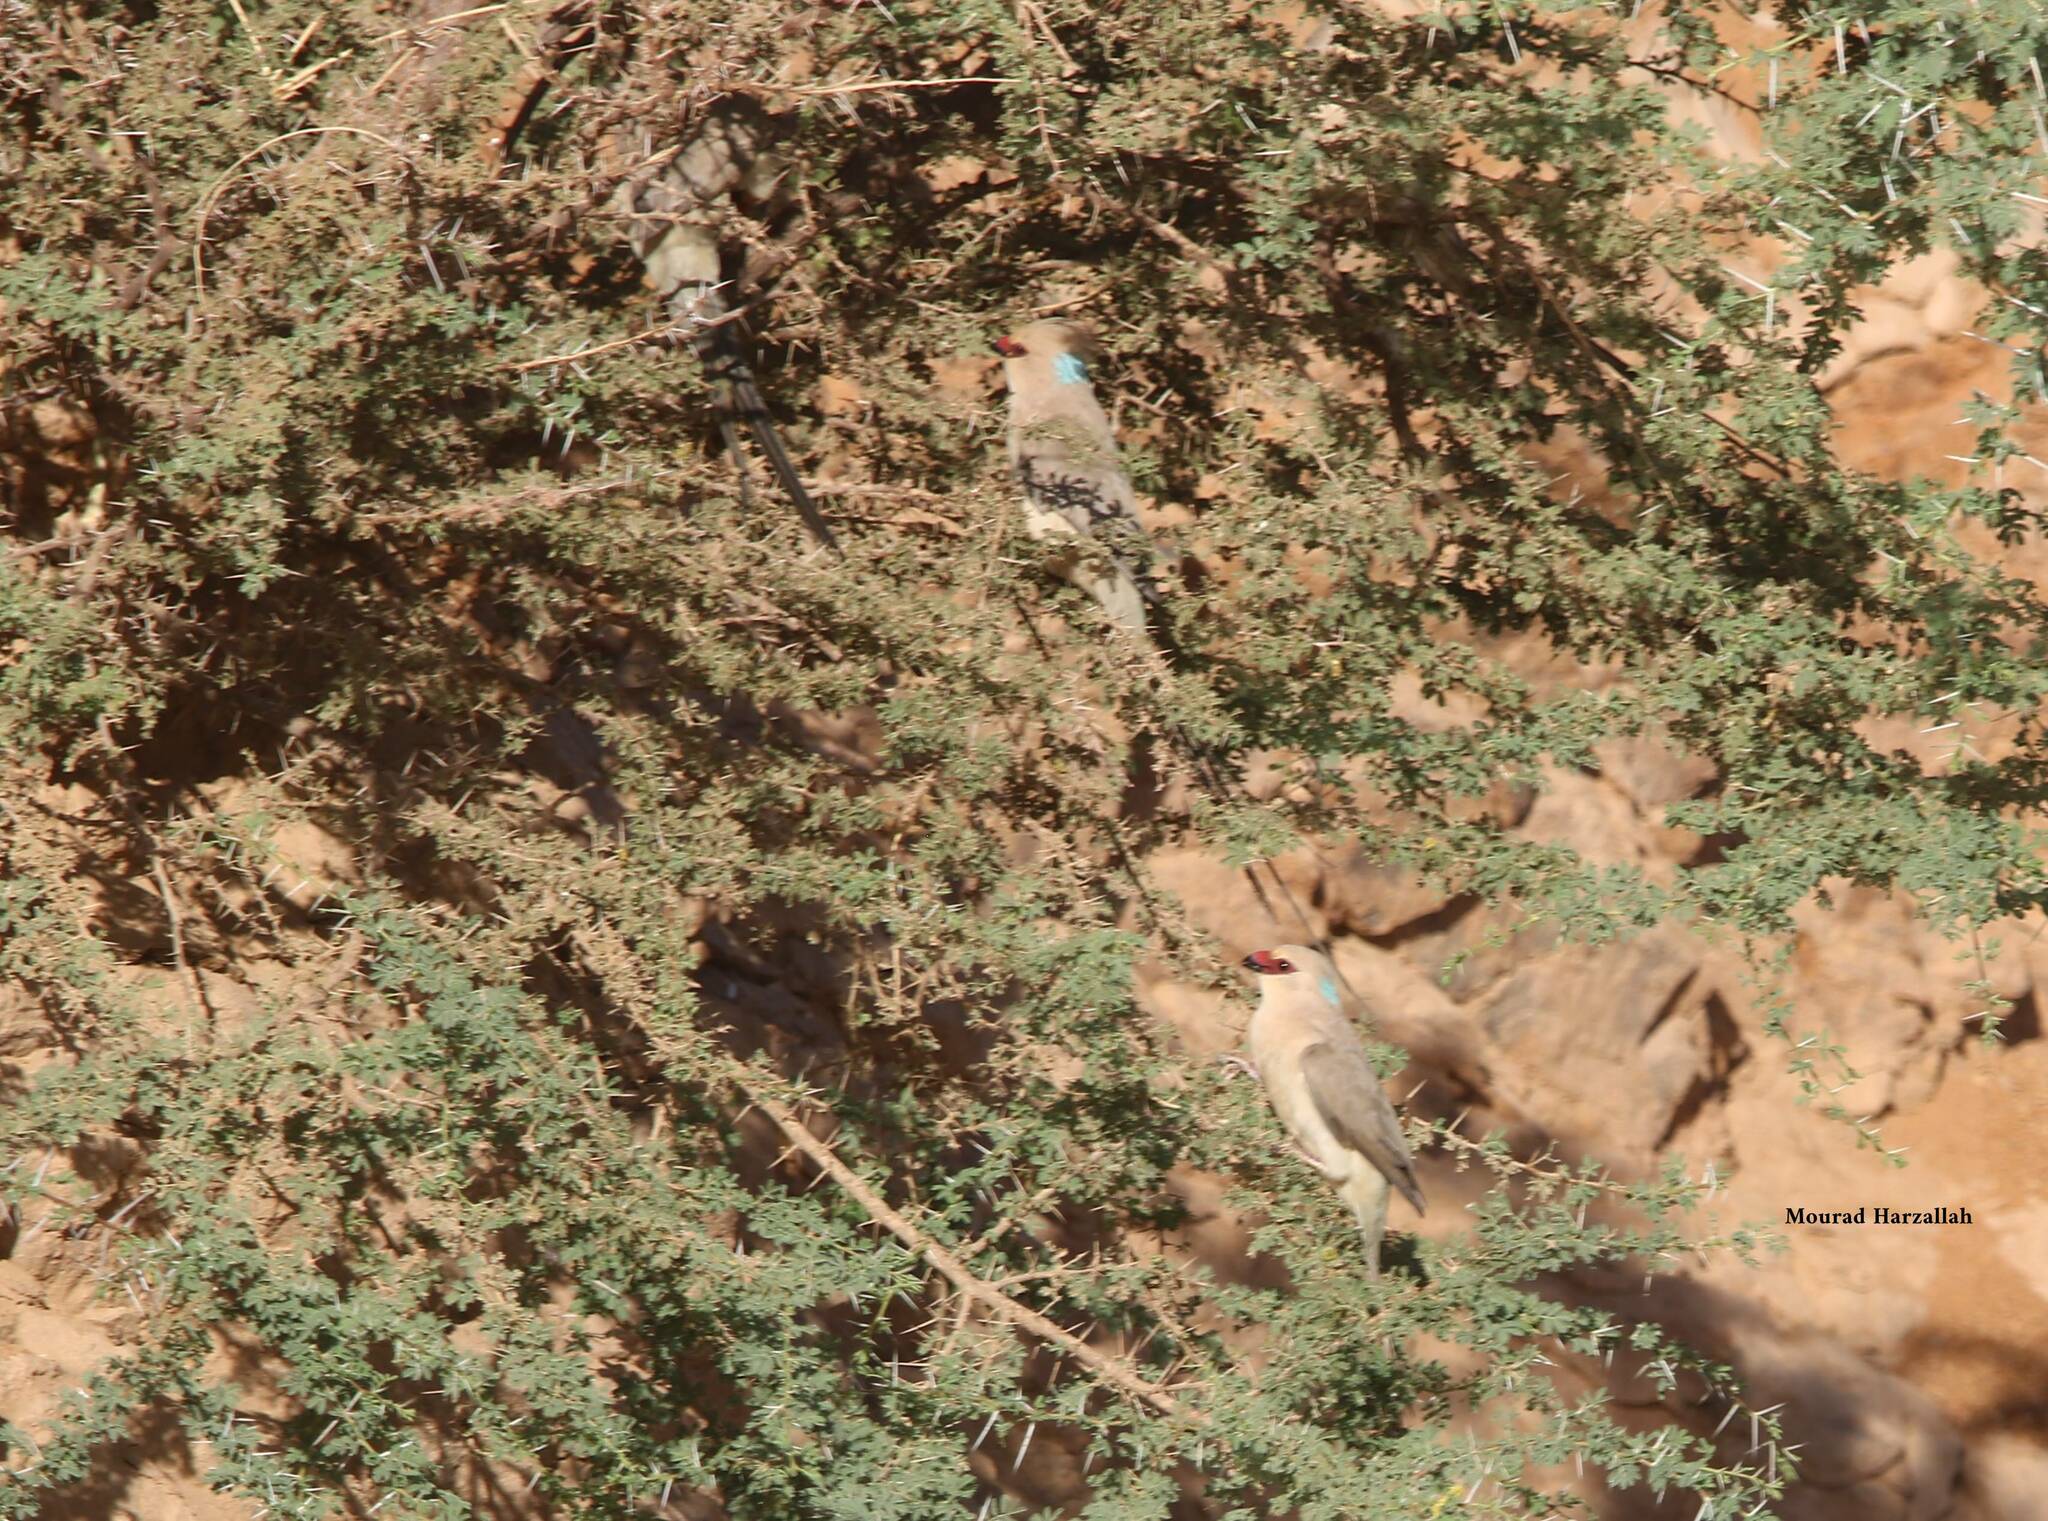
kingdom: Animalia
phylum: Chordata
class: Aves
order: Coliiformes
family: Coliidae
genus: Urocolius
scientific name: Urocolius macrourus
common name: Blue-naped mousebird
